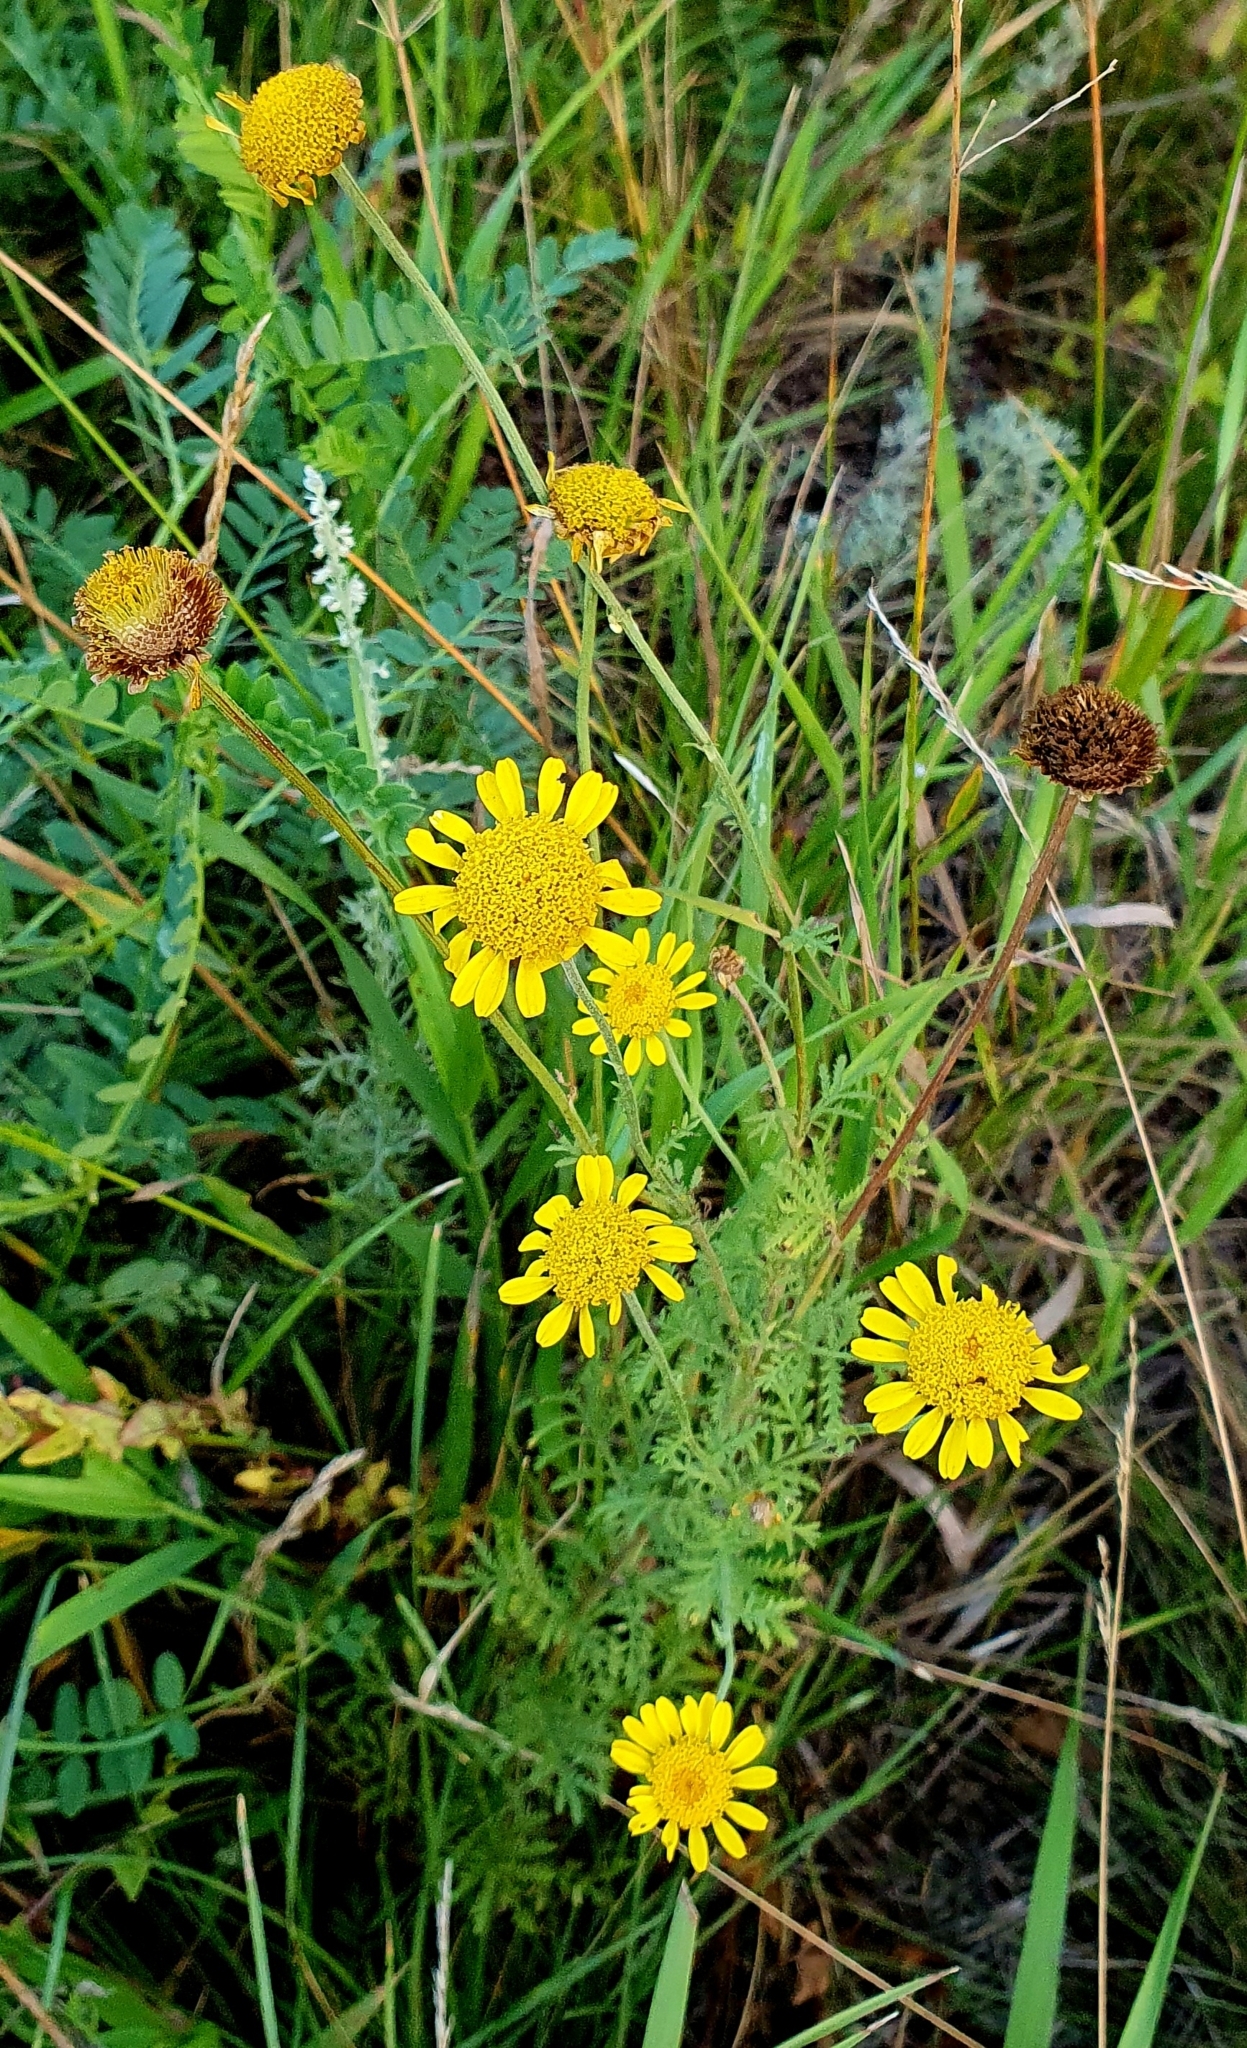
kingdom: Plantae
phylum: Tracheophyta
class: Magnoliopsida
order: Asterales
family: Asteraceae
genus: Cota
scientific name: Cota tinctoria
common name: Golden chamomile
